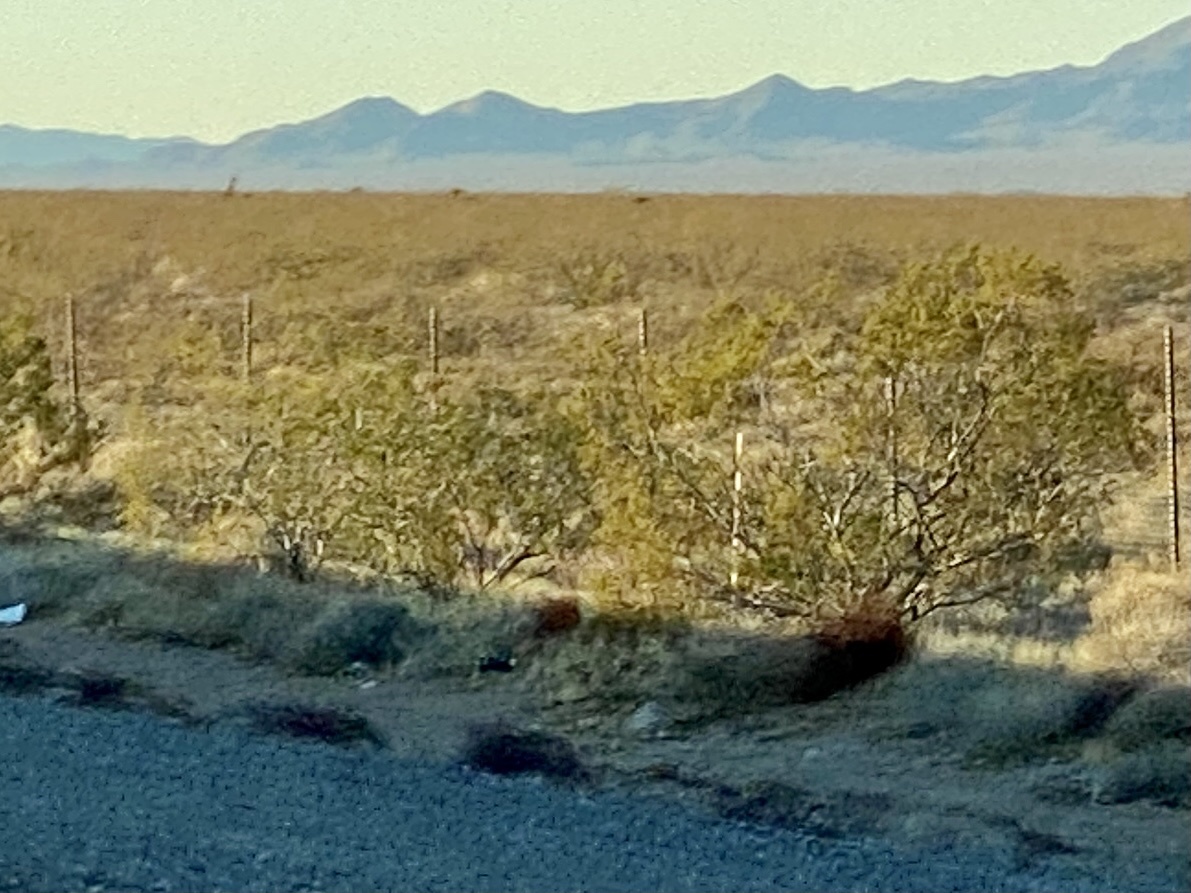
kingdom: Plantae
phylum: Tracheophyta
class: Magnoliopsida
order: Zygophyllales
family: Zygophyllaceae
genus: Larrea
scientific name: Larrea tridentata
